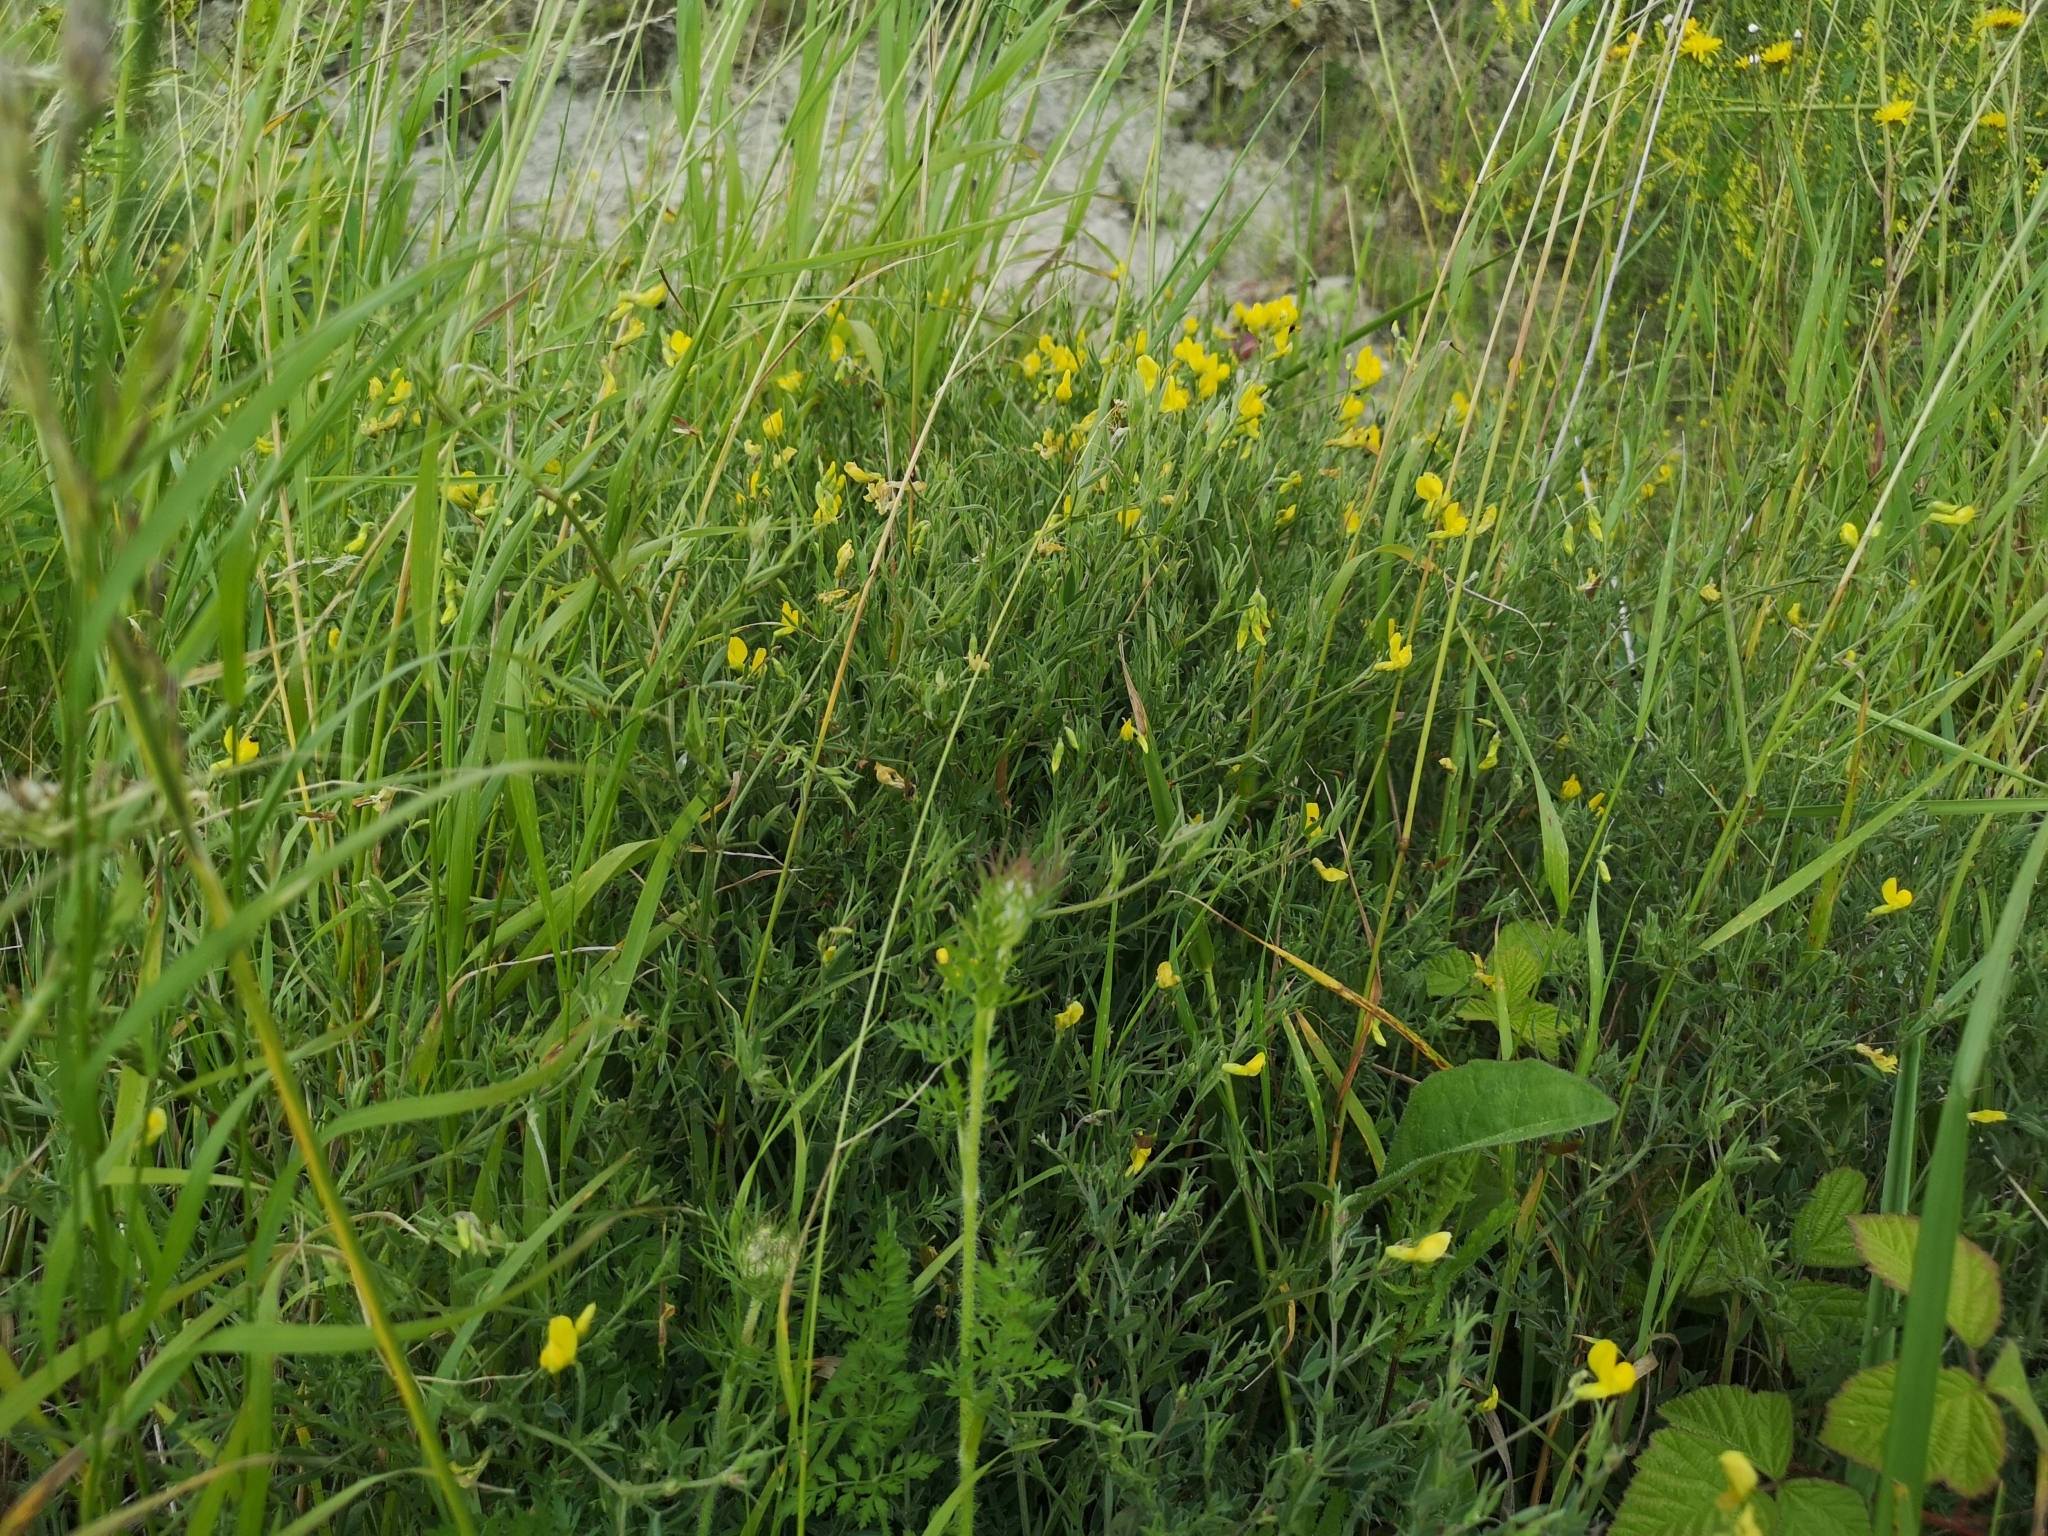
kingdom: Plantae
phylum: Tracheophyta
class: Magnoliopsida
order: Fabales
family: Fabaceae
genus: Lathyrus
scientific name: Lathyrus pratensis
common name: Meadow vetchling
